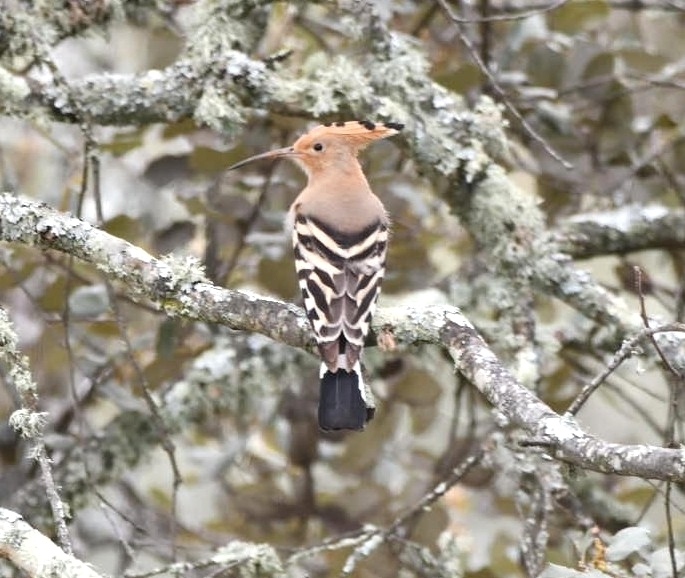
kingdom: Animalia
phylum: Chordata
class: Aves
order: Bucerotiformes
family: Upupidae
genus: Upupa
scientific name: Upupa epops
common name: Eurasian hoopoe
